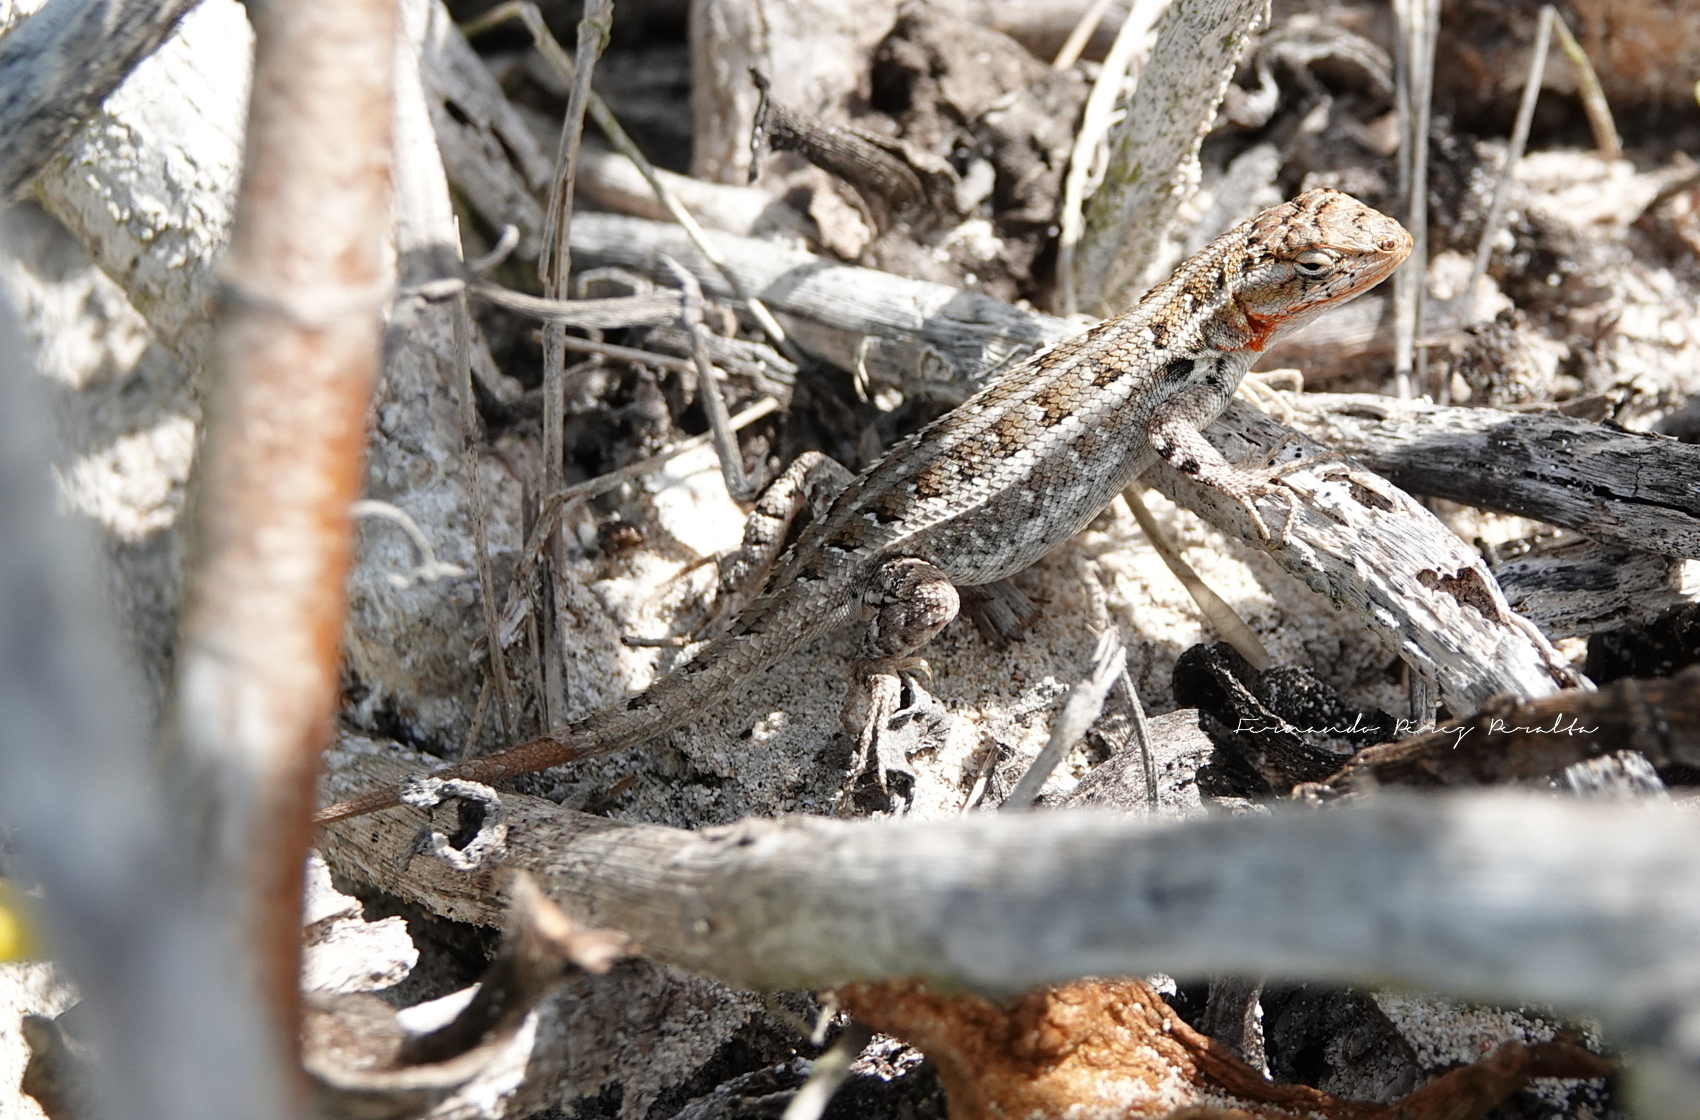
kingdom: Animalia
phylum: Chordata
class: Squamata
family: Phrynosomatidae
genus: Sceloporus
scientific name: Sceloporus cozumelae
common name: Cozumel spiny lizard
